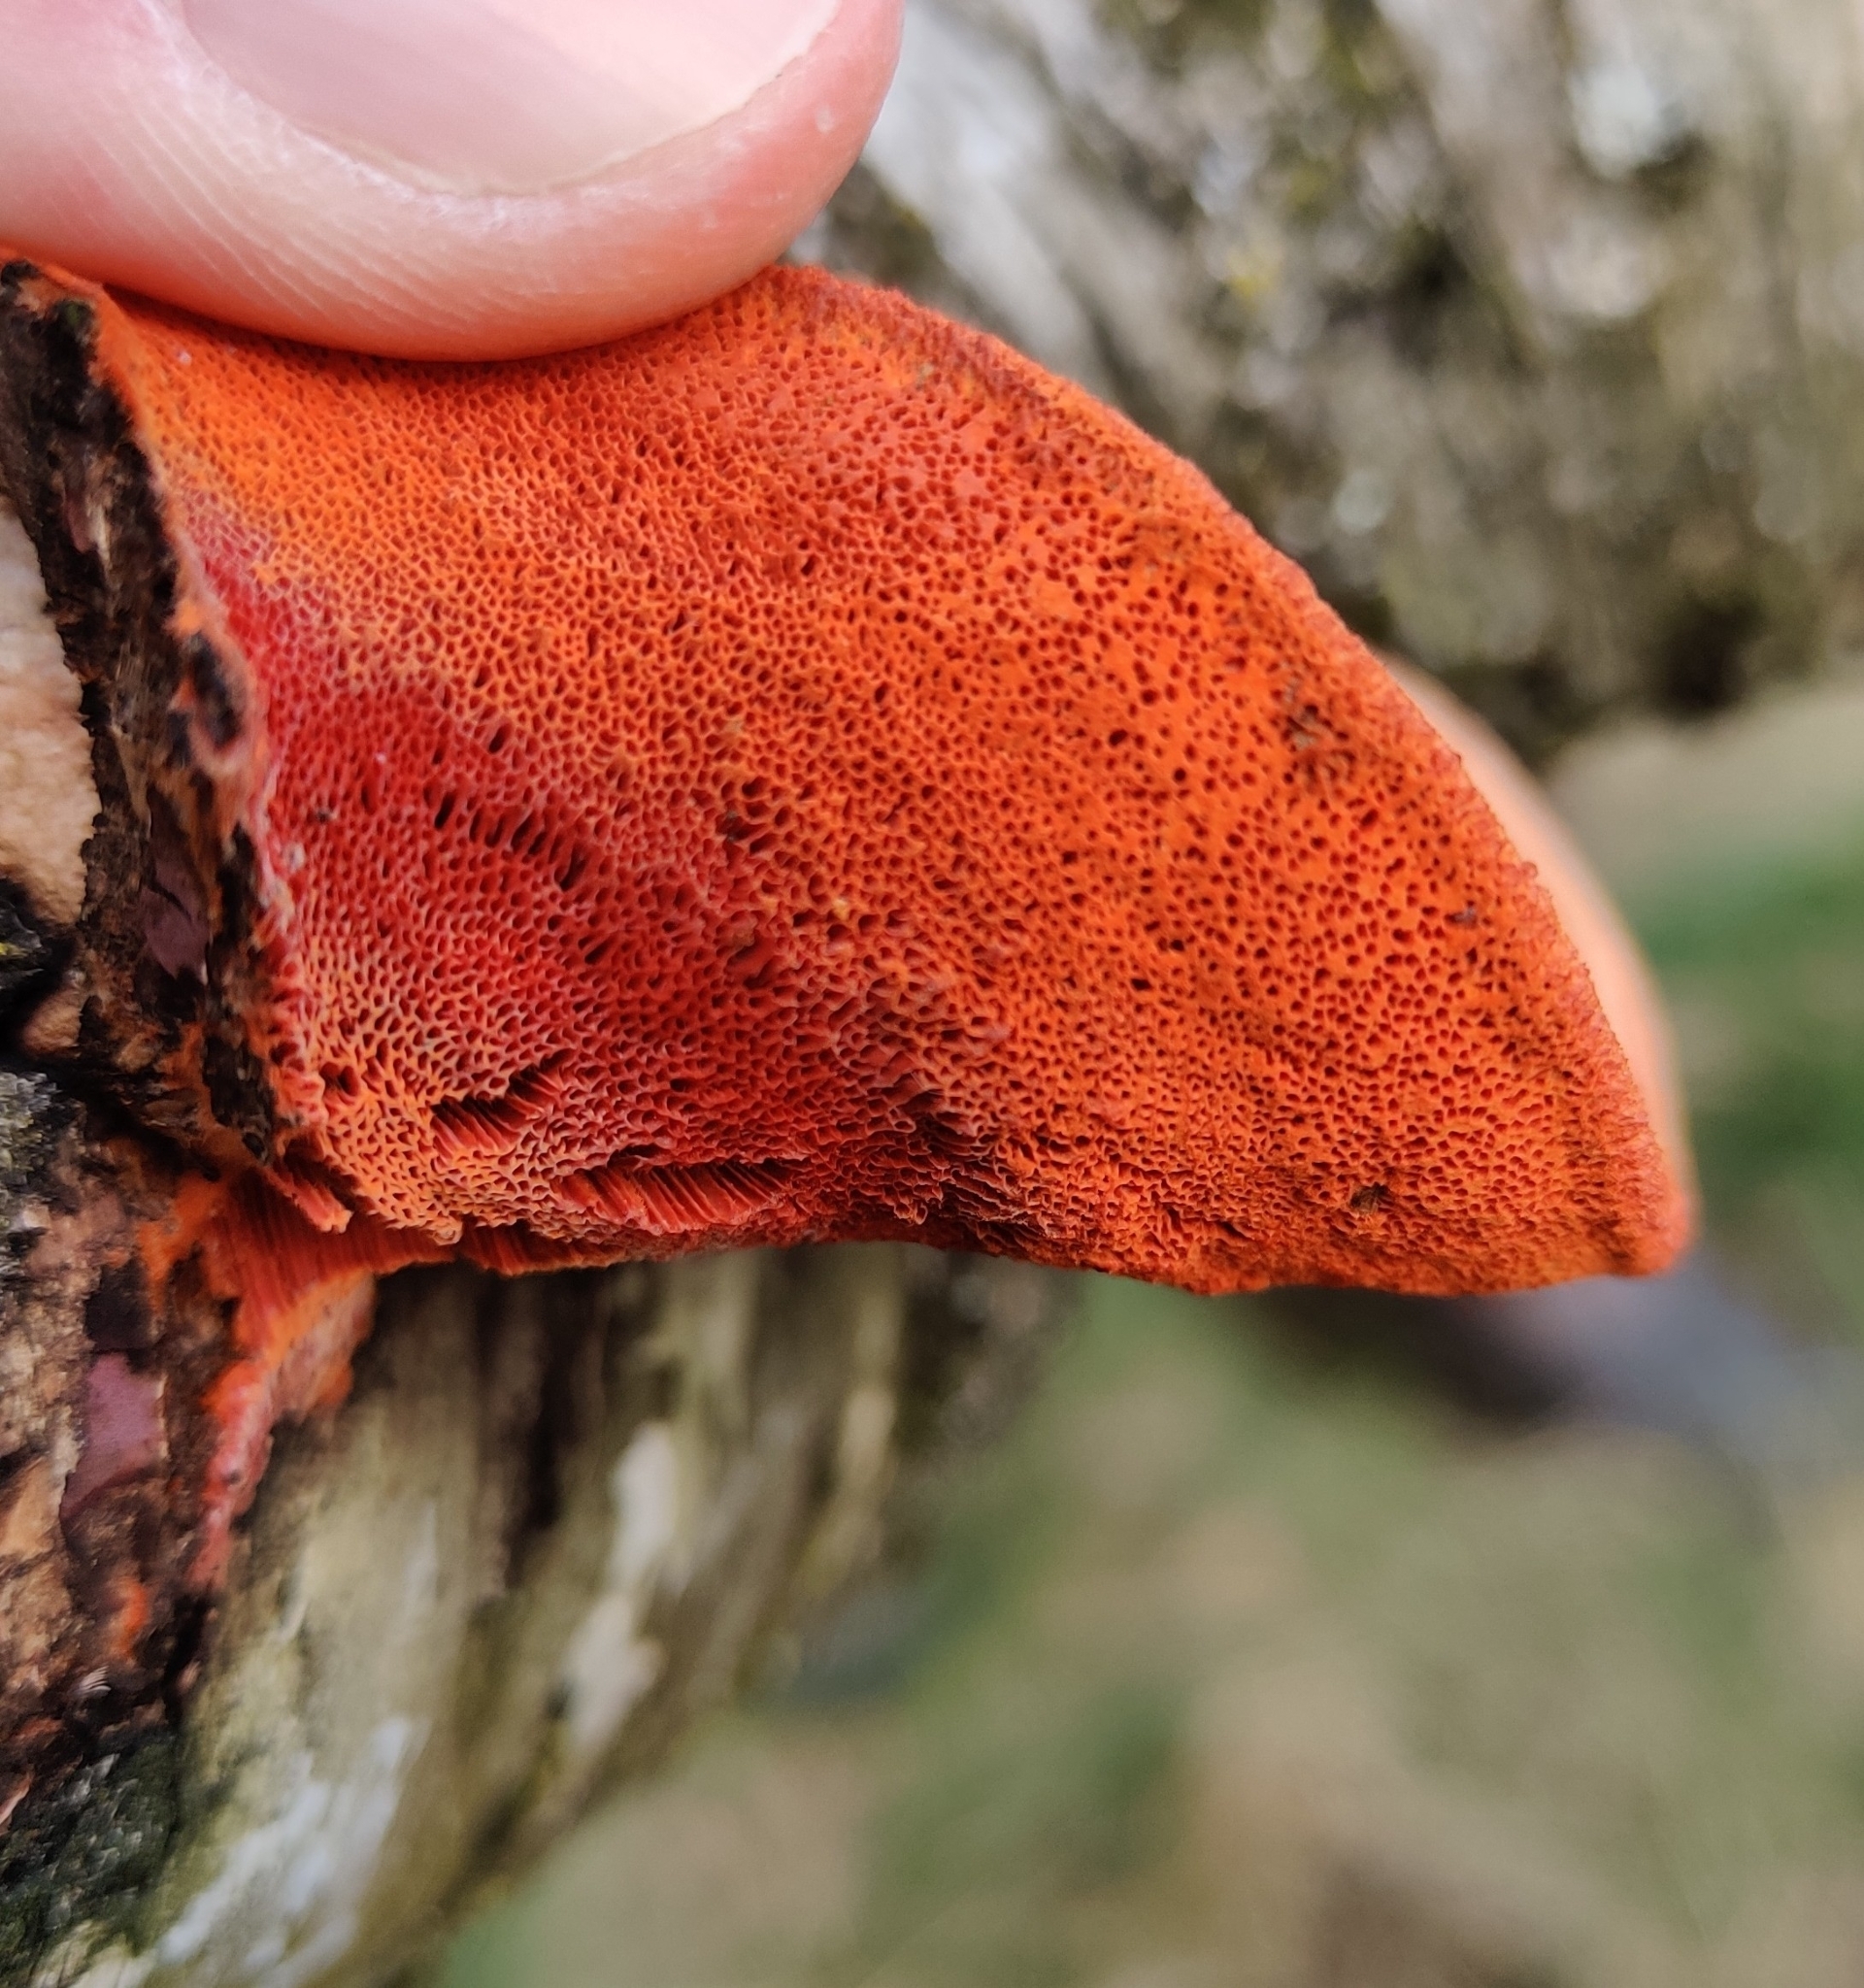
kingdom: Fungi
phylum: Basidiomycota
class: Agaricomycetes
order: Polyporales
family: Polyporaceae
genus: Trametes
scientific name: Trametes cinnabarina
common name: Northern cinnabar polypore
